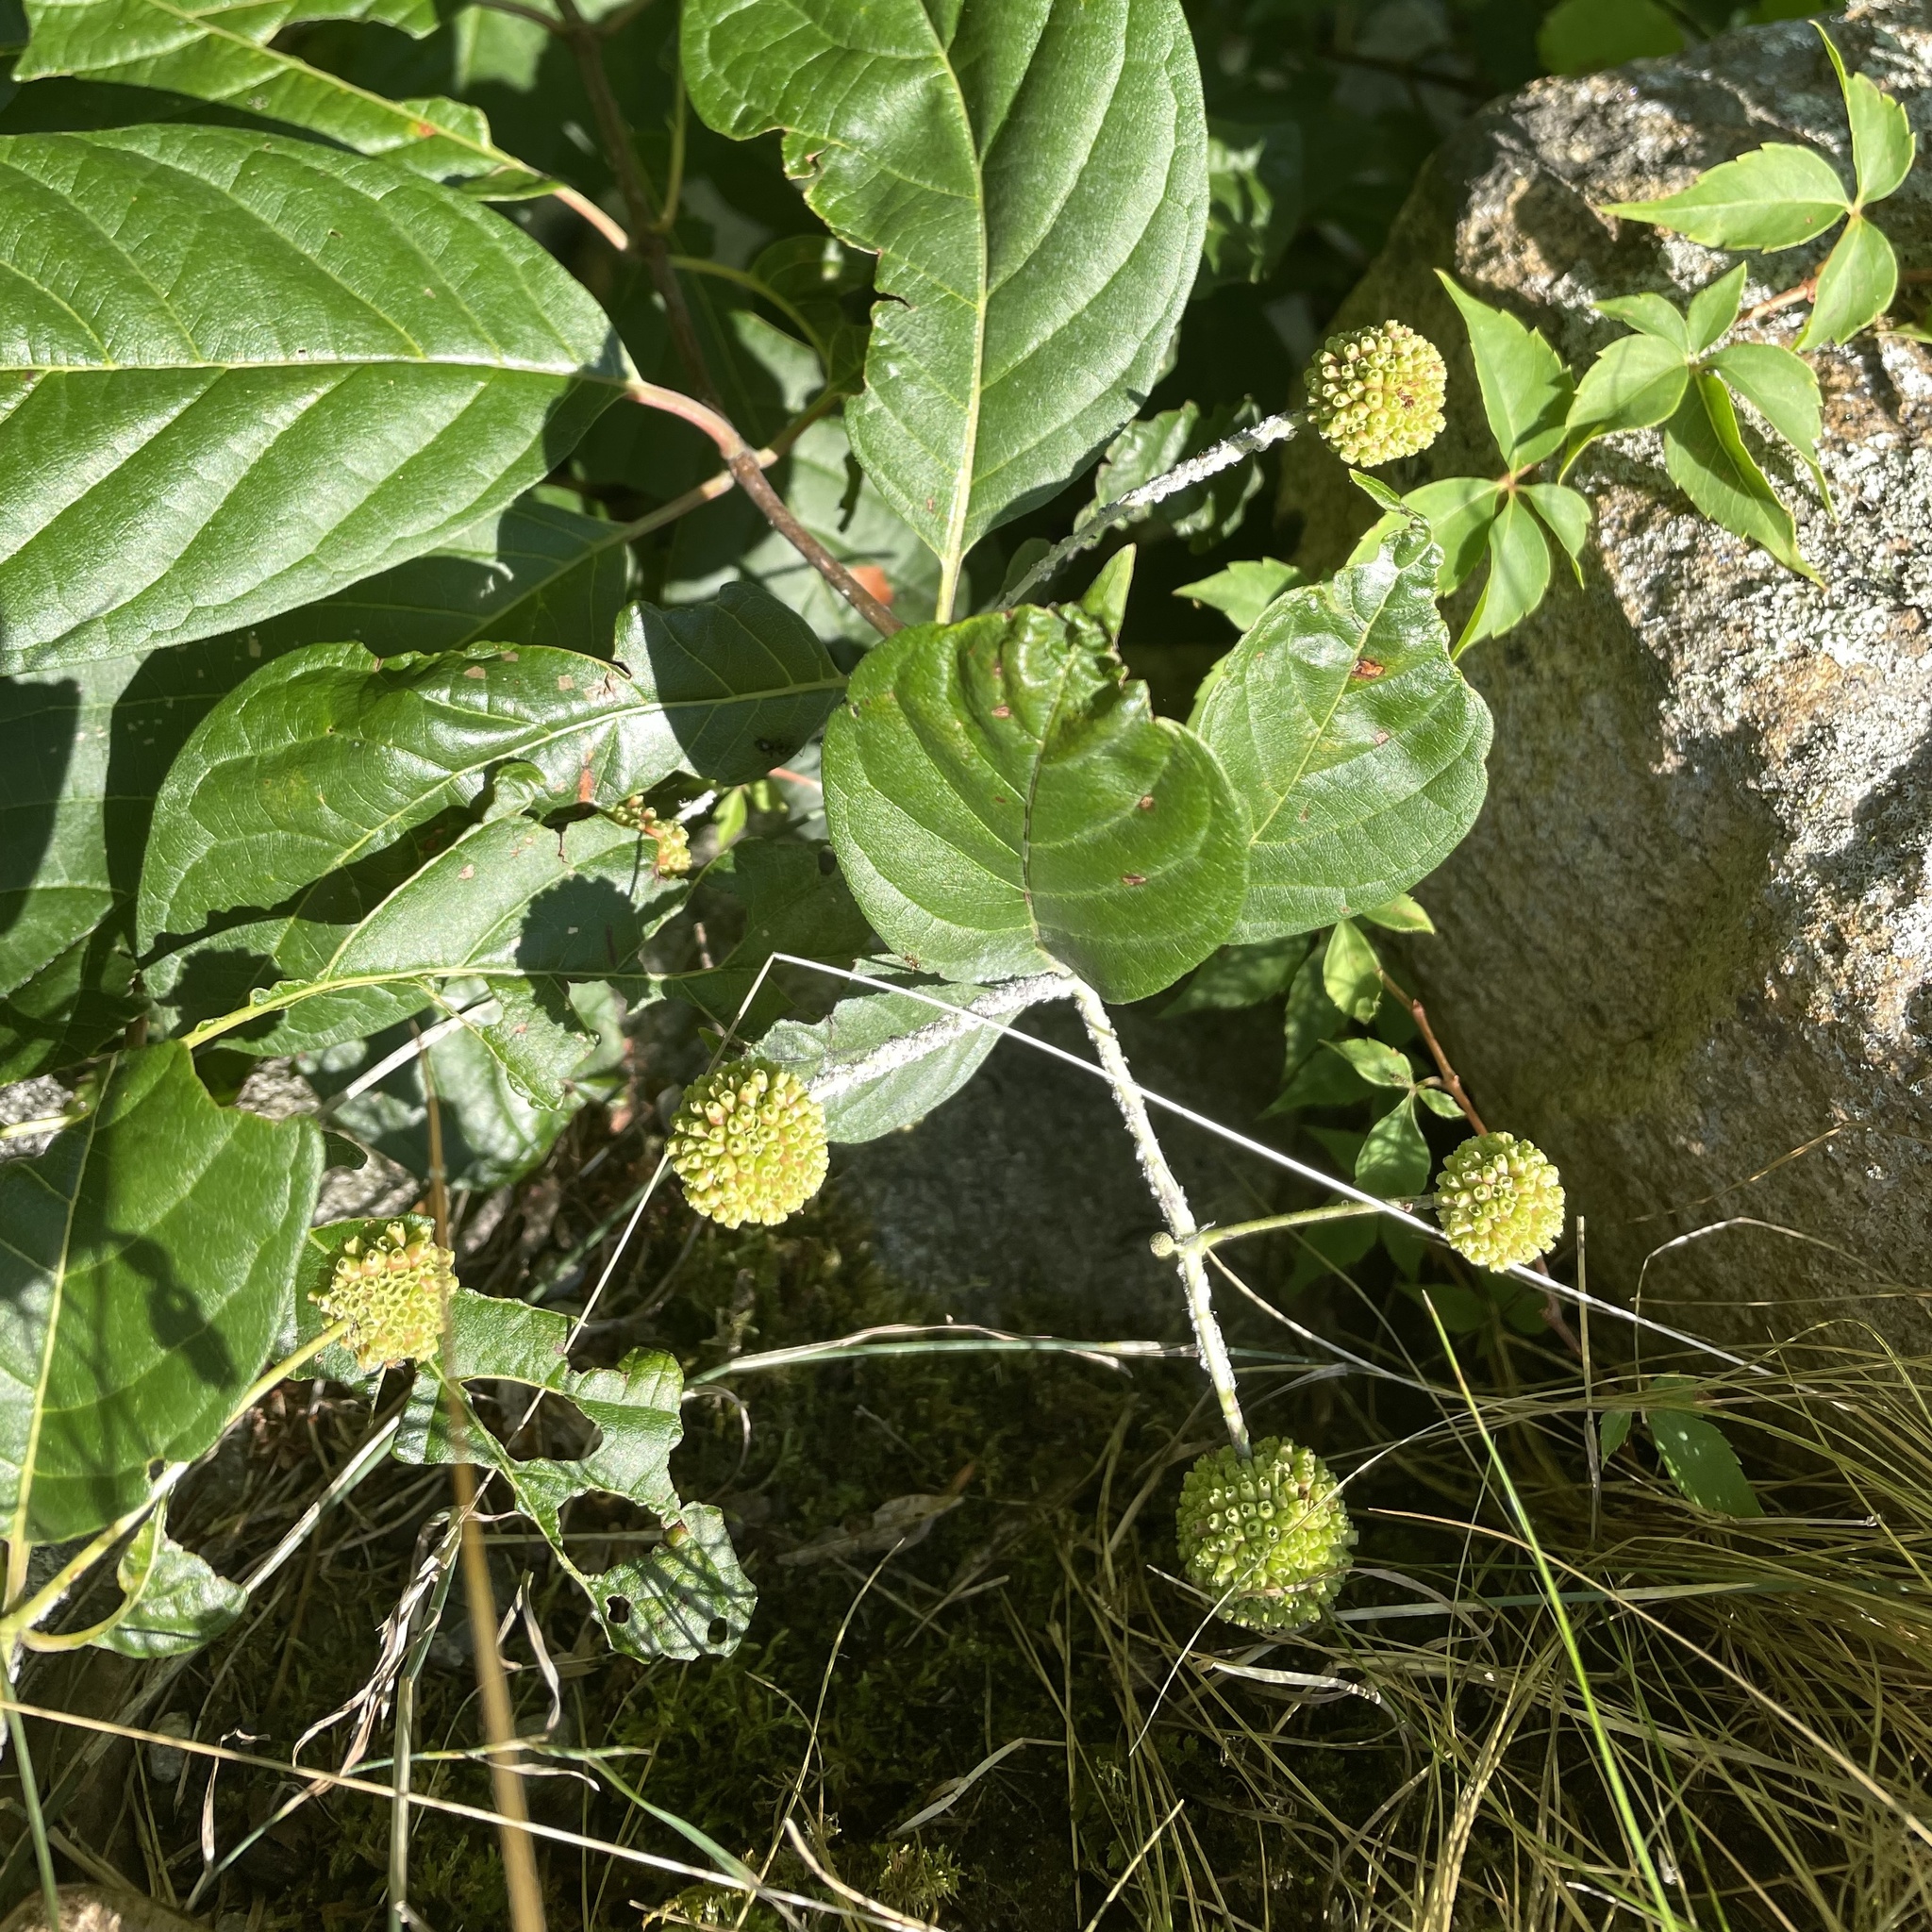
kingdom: Plantae
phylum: Tracheophyta
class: Magnoliopsida
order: Gentianales
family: Rubiaceae
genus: Cephalanthus
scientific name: Cephalanthus occidentalis
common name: Button-willow
